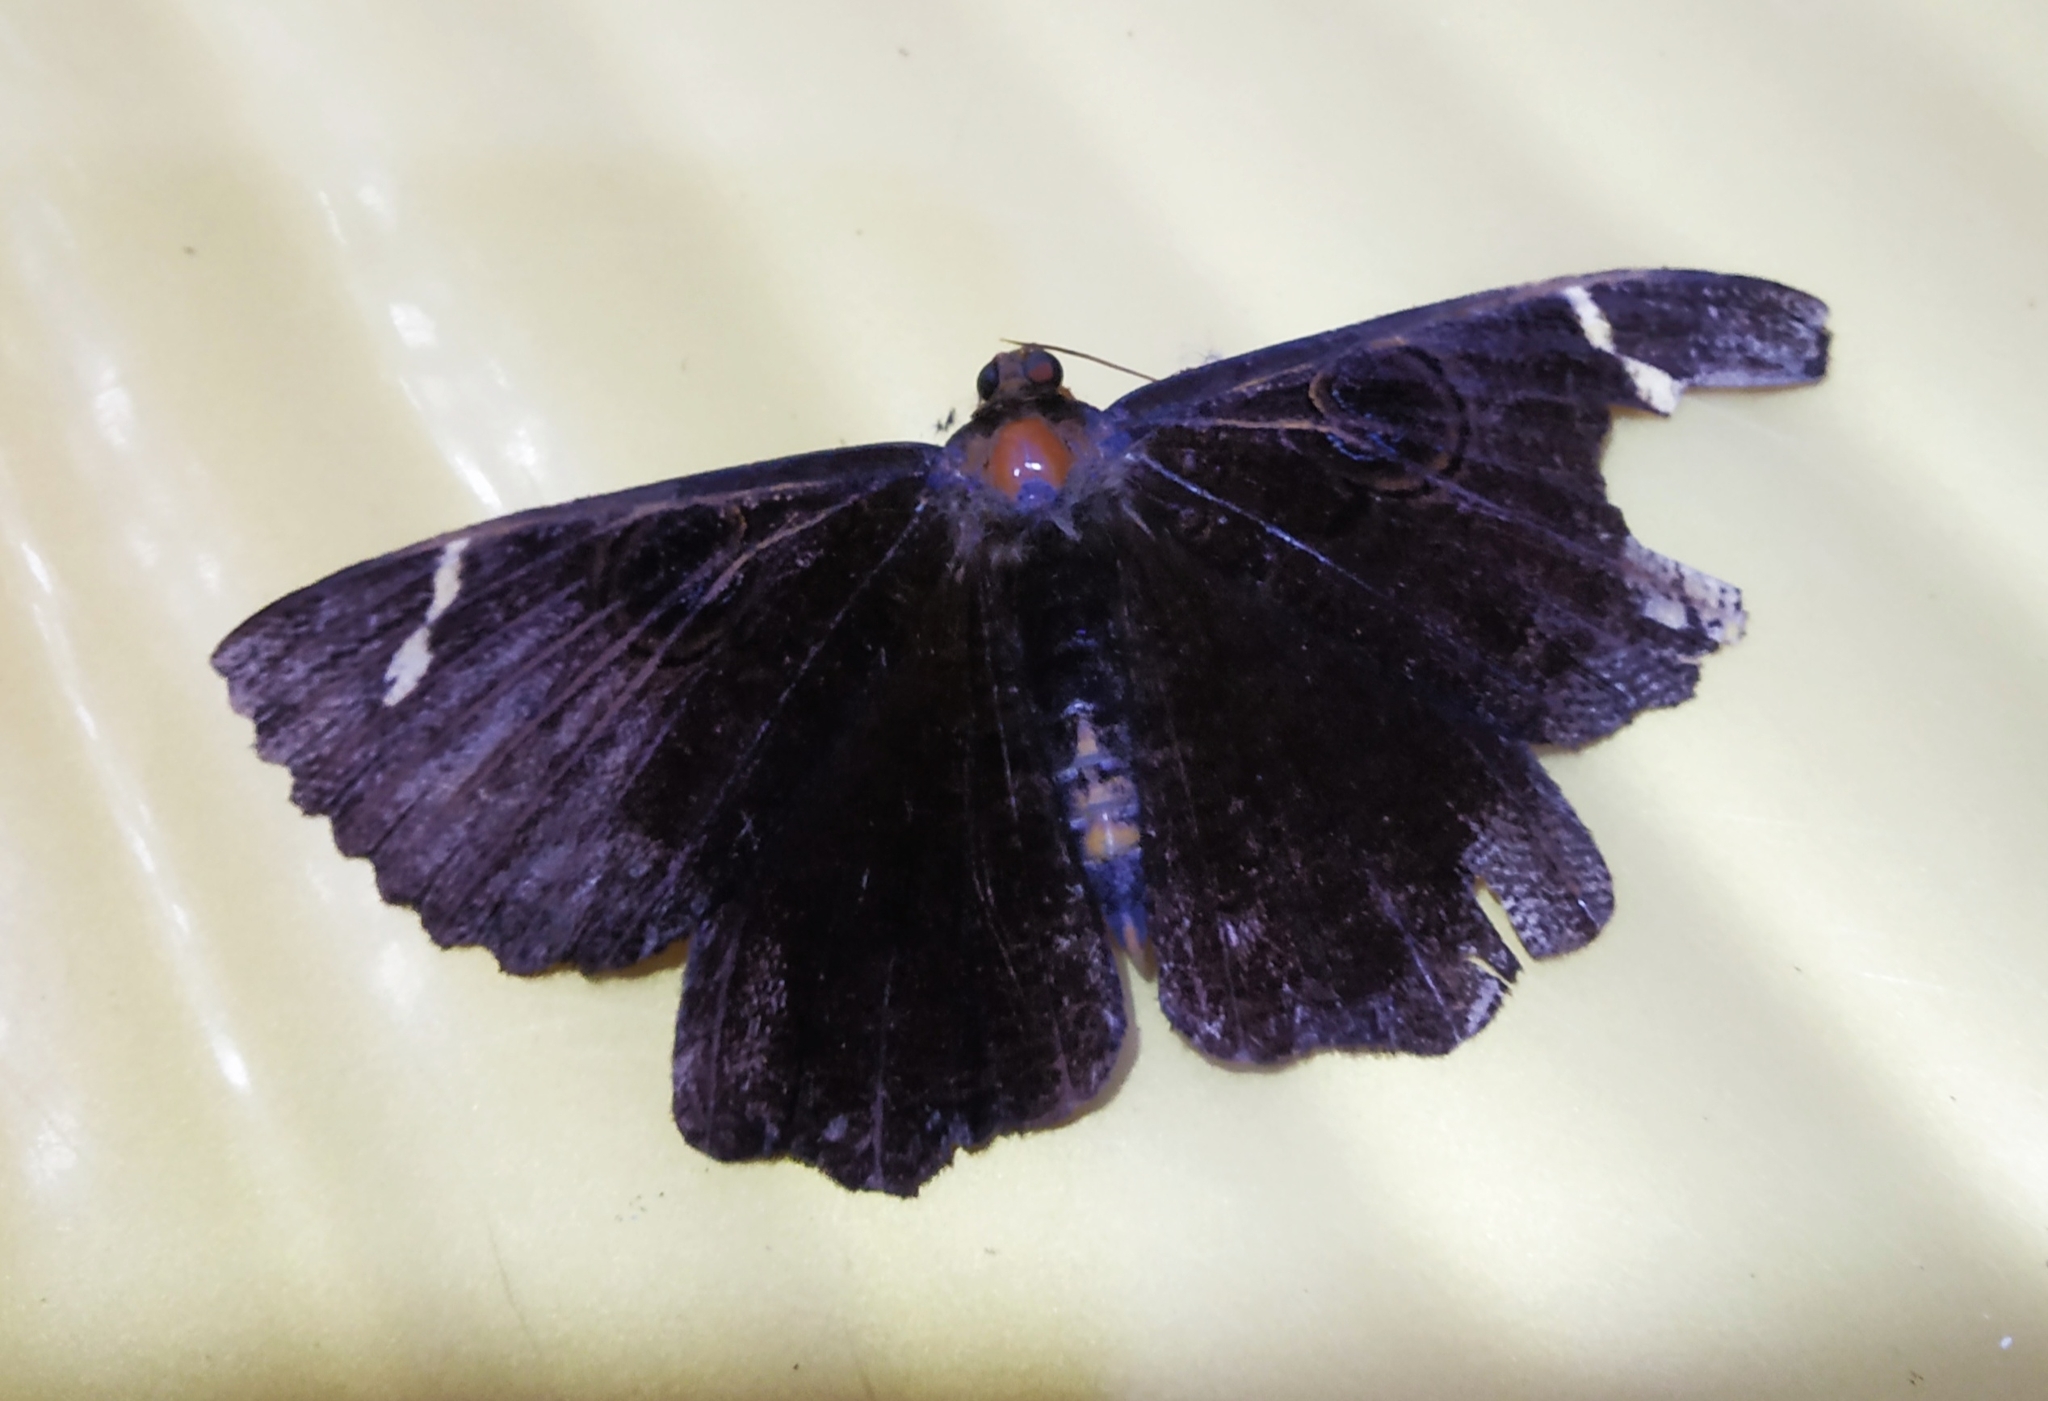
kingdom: Animalia
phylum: Arthropoda
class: Insecta
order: Lepidoptera
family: Erebidae
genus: Erebus
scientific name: Erebus hieroglyphica
